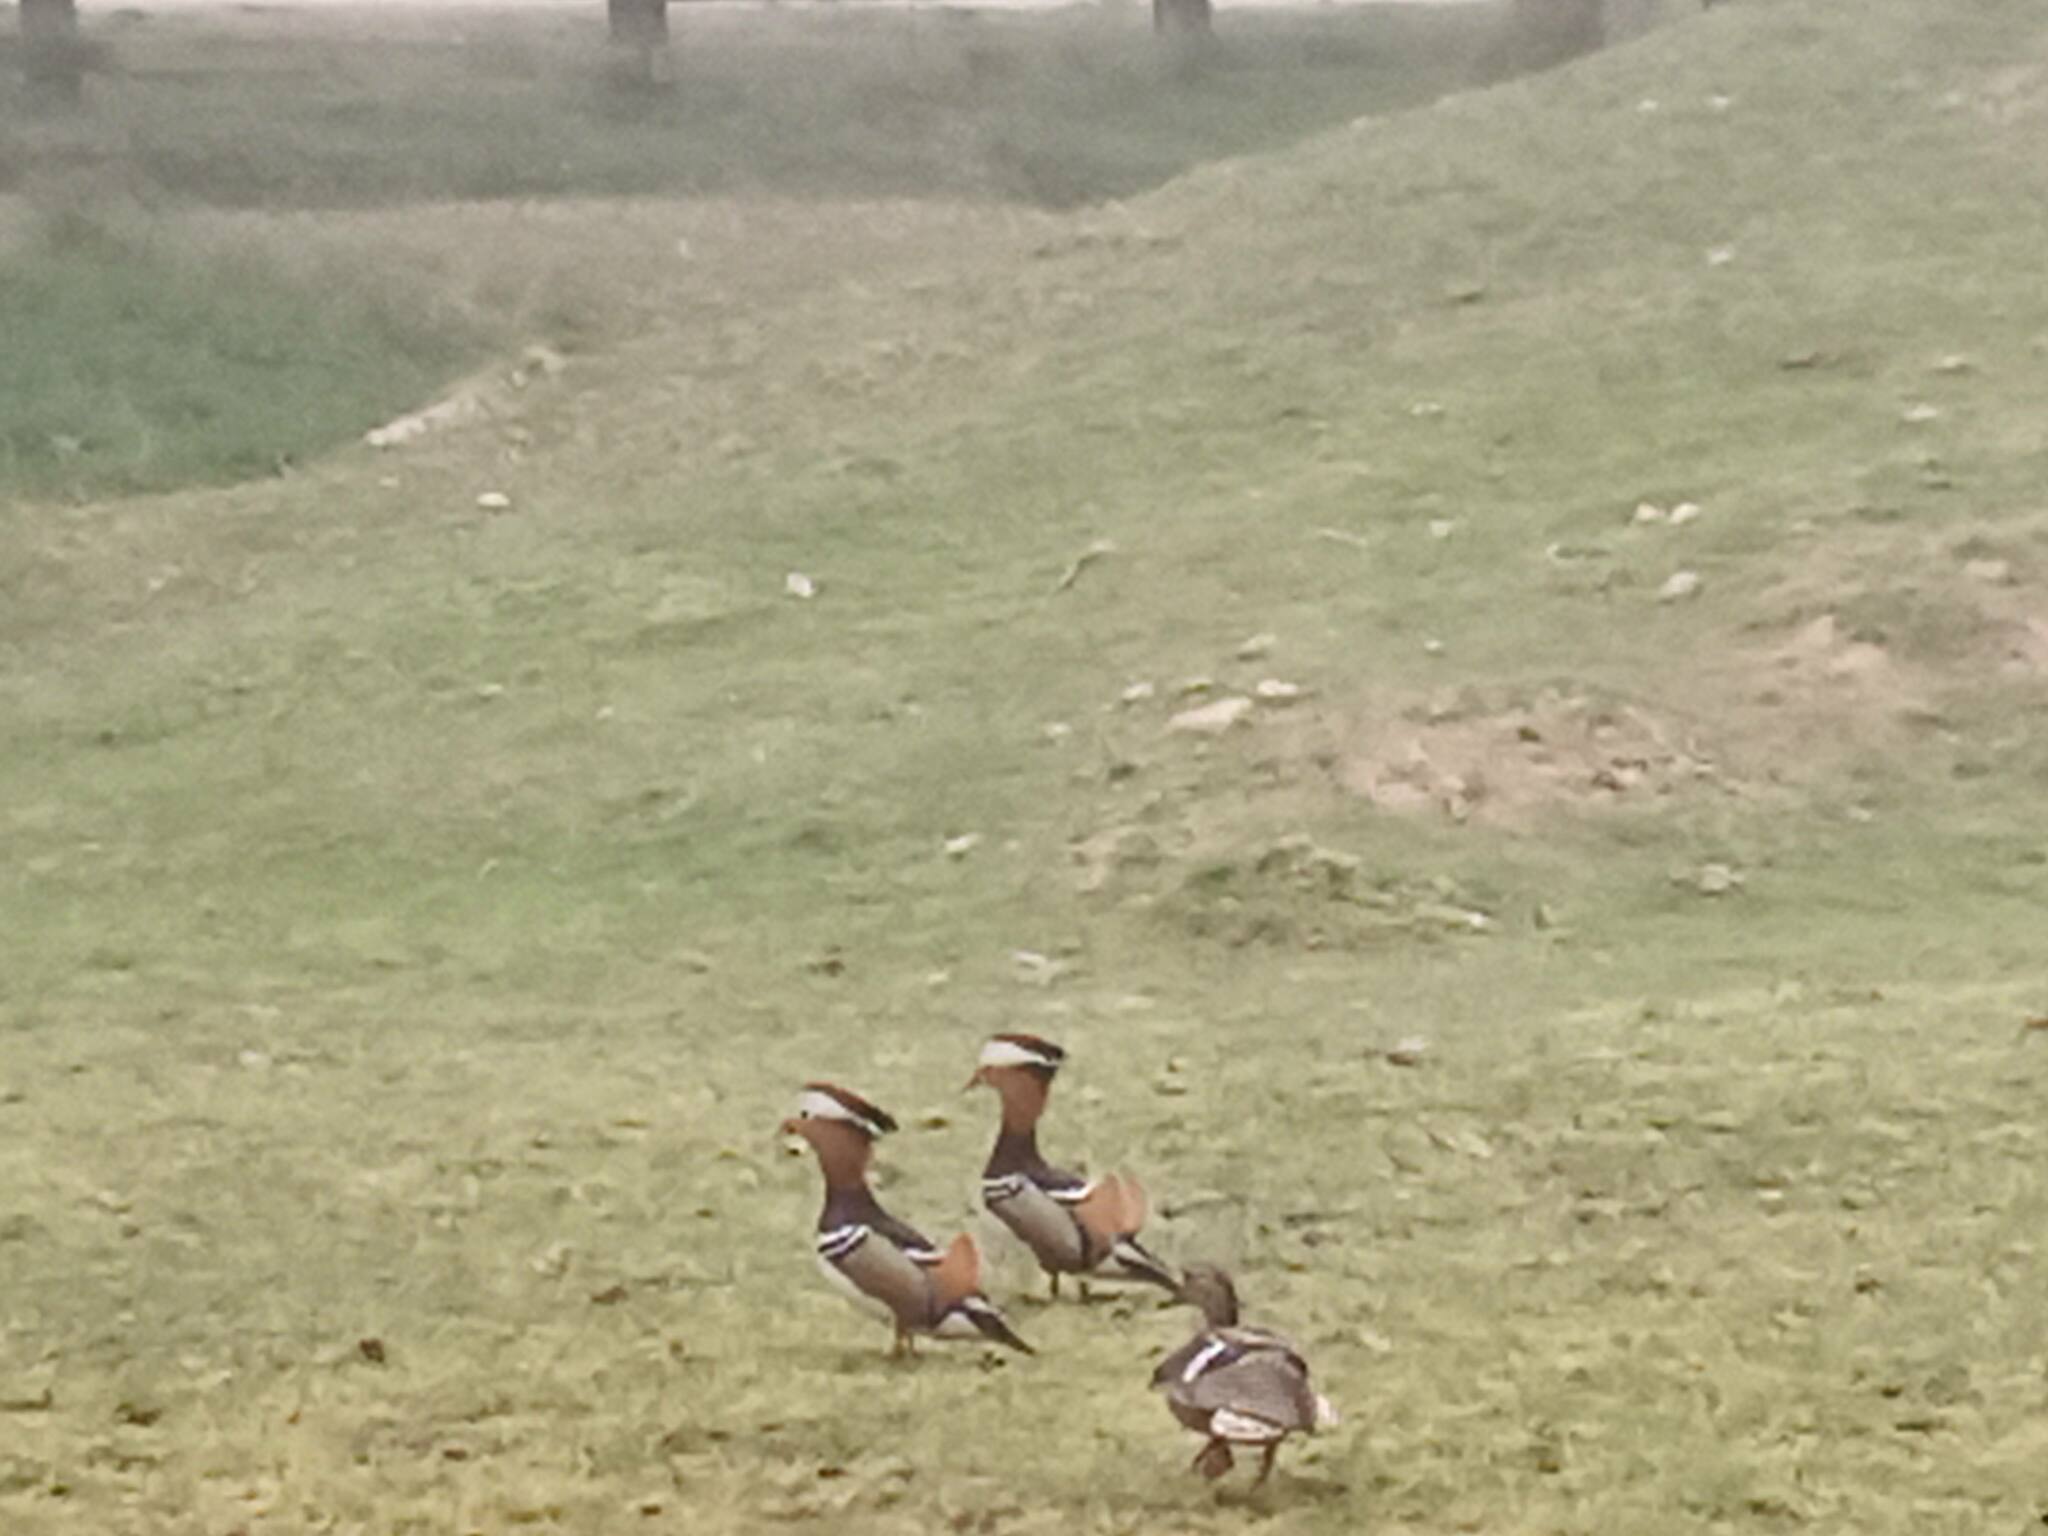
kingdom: Animalia
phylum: Chordata
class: Aves
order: Anseriformes
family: Anatidae
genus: Aix
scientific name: Aix galericulata
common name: Mandarin duck
